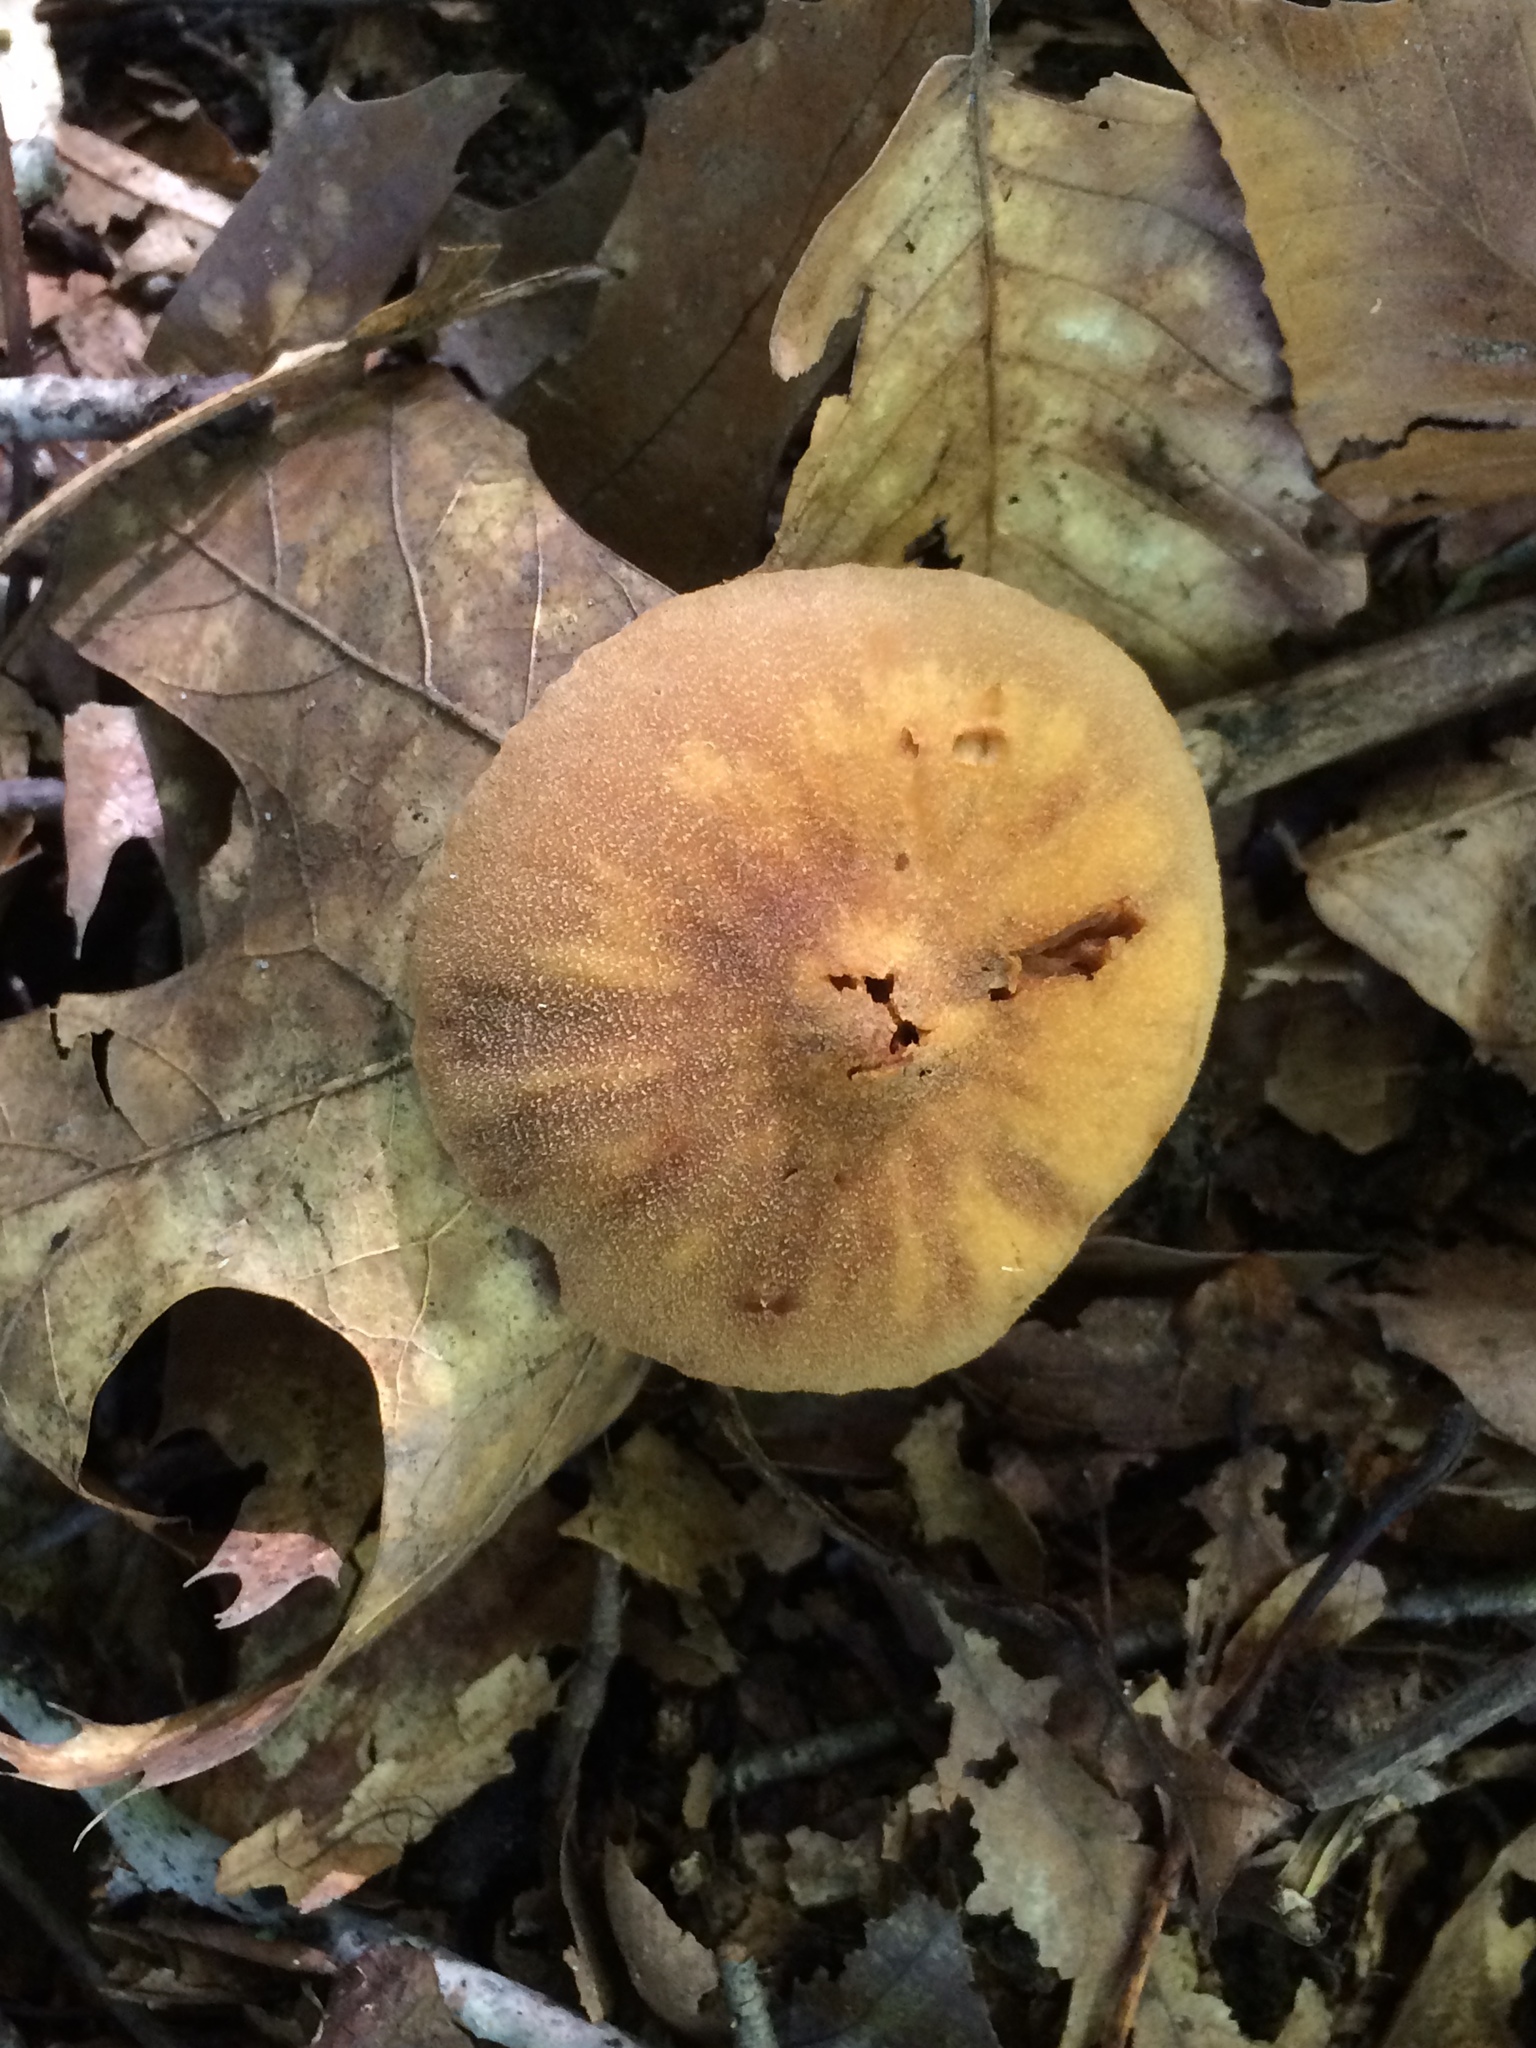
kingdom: Fungi
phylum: Basidiomycota
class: Agaricomycetes
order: Agaricales
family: Cortinariaceae
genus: Cortinarius
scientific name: Cortinarius
